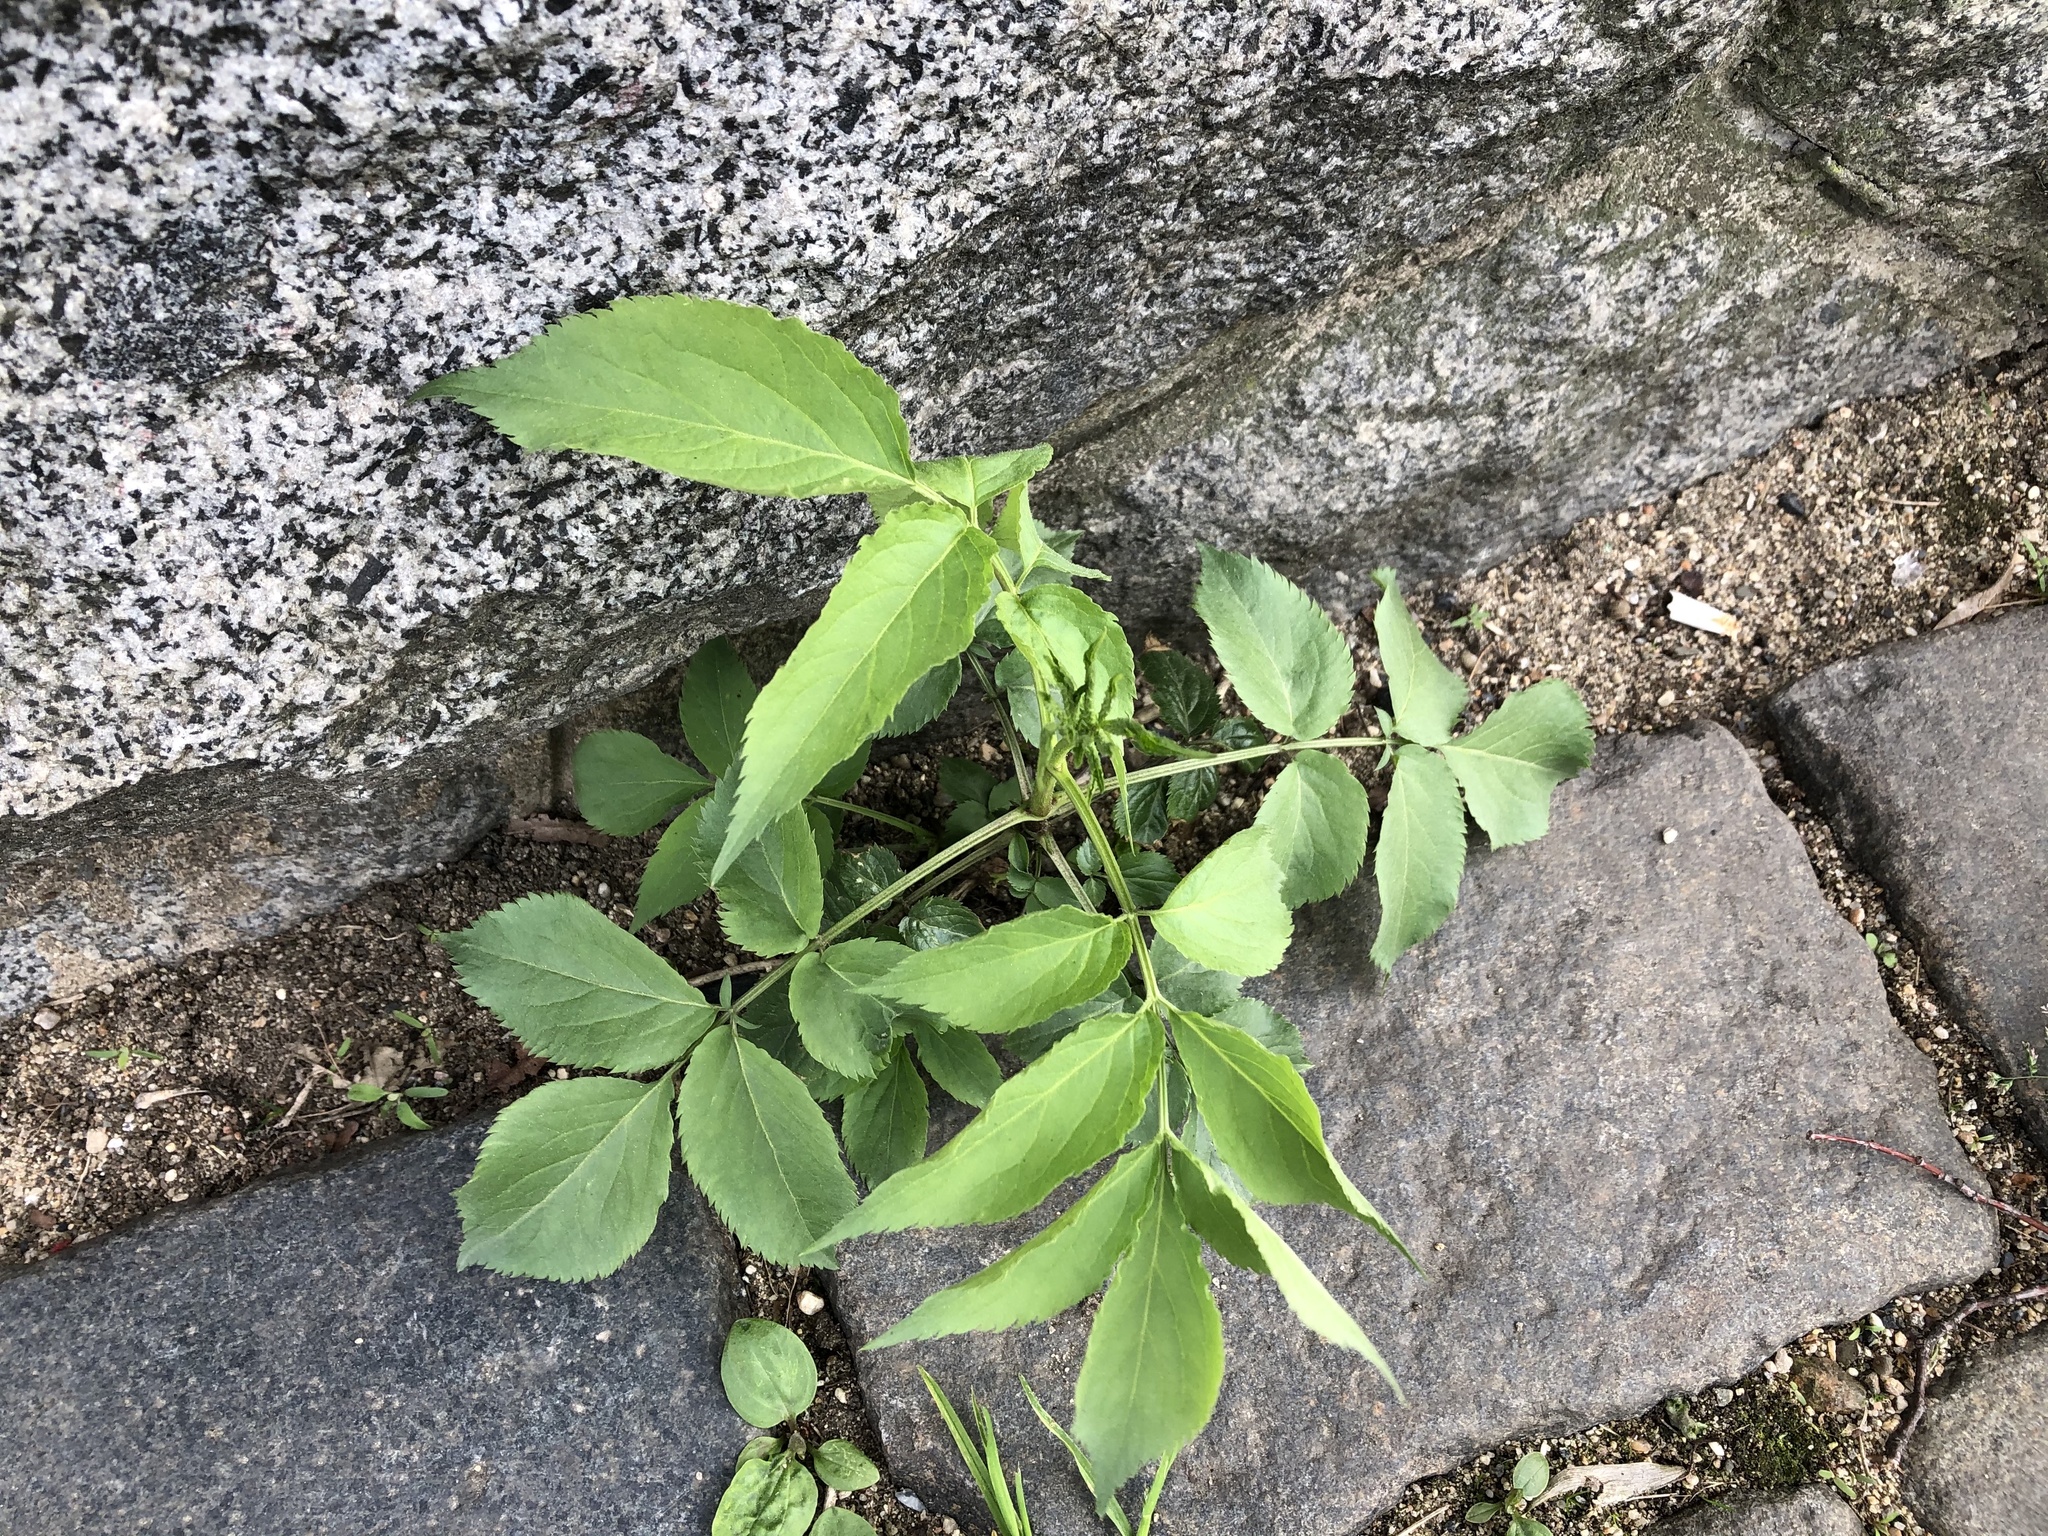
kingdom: Plantae
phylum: Tracheophyta
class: Magnoliopsida
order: Dipsacales
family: Viburnaceae
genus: Sambucus
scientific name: Sambucus nigra
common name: Elder
